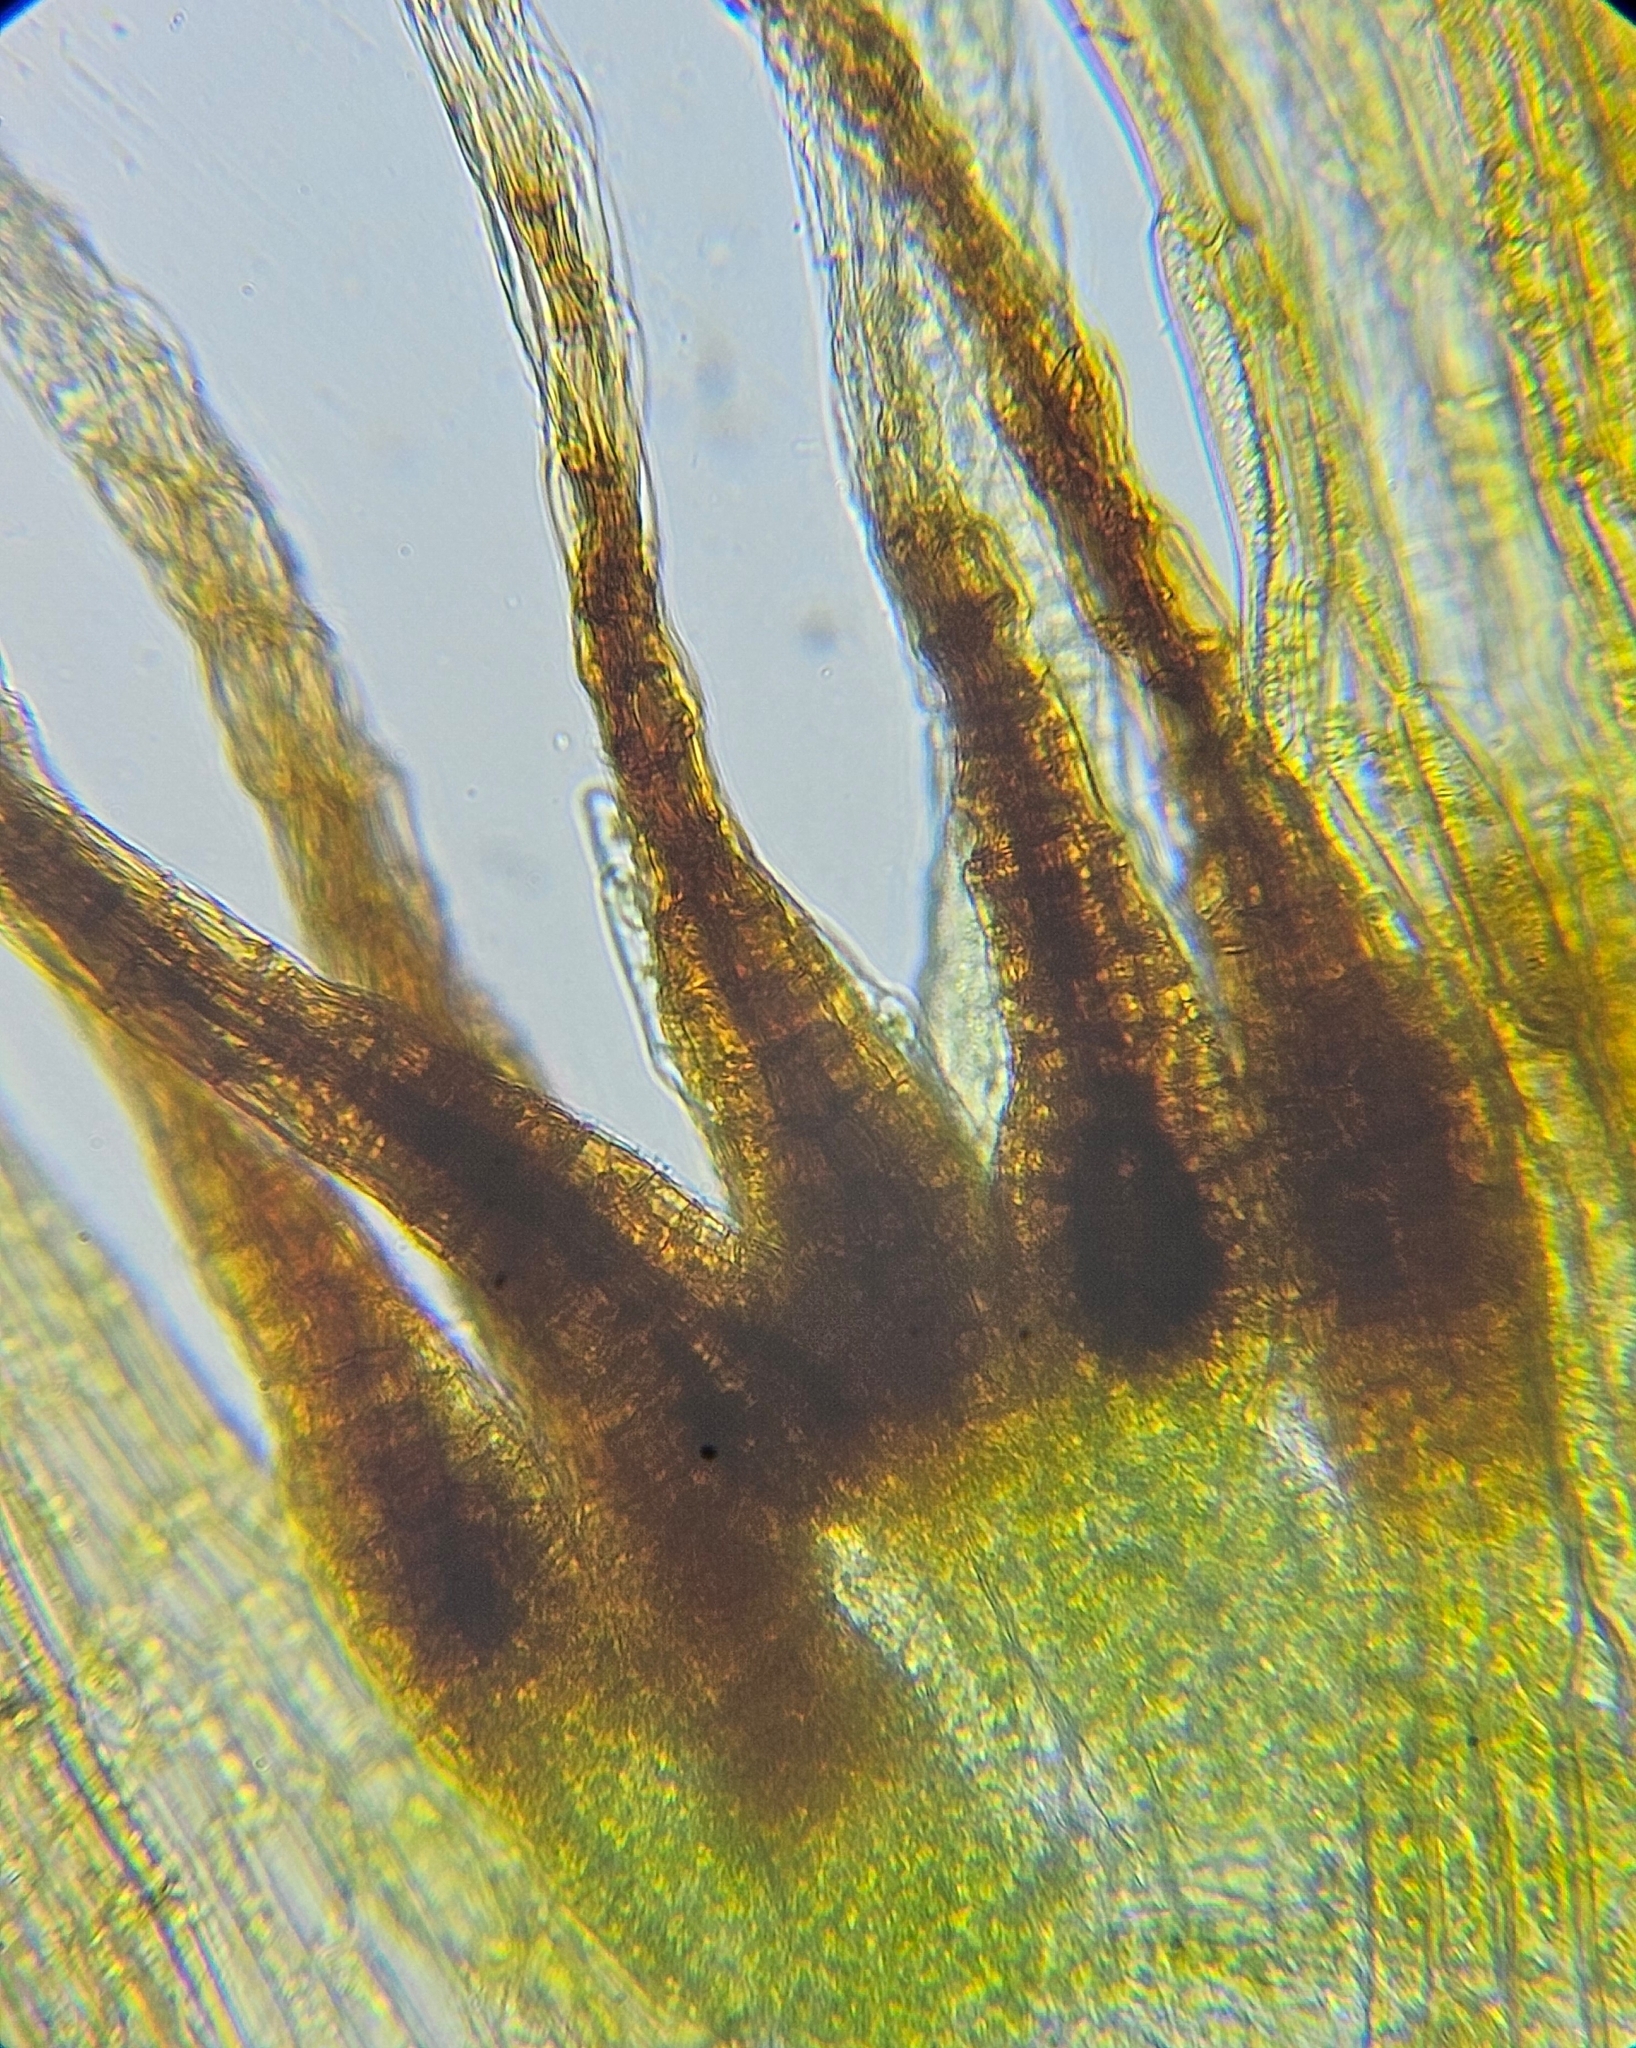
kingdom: Plantae
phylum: Bryophyta
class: Bryopsida
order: Dicranales
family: Dicranellaceae
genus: Dicranella
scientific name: Dicranella rufescens
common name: Red forklet moss
